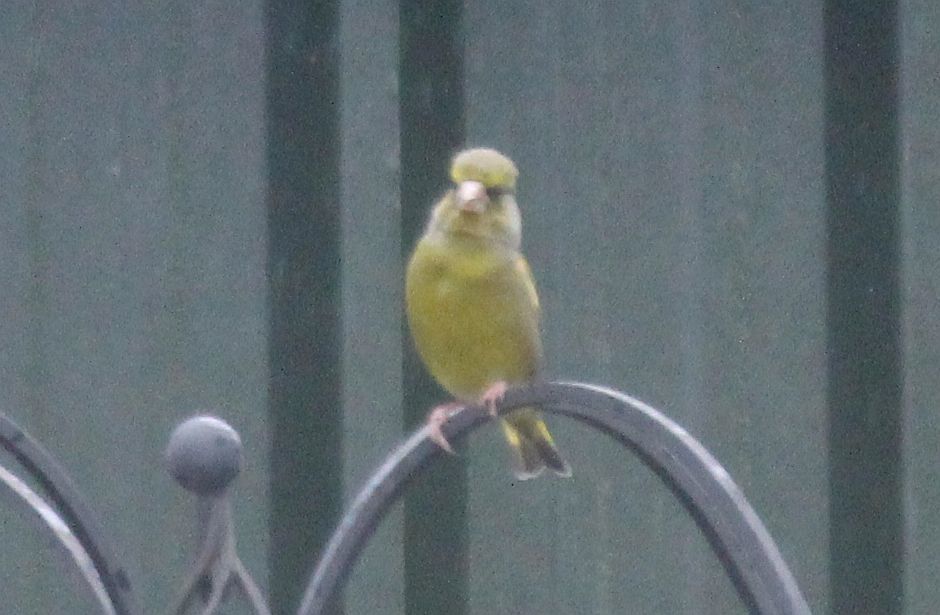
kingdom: Plantae
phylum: Tracheophyta
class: Liliopsida
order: Poales
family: Poaceae
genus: Chloris
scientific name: Chloris chloris
